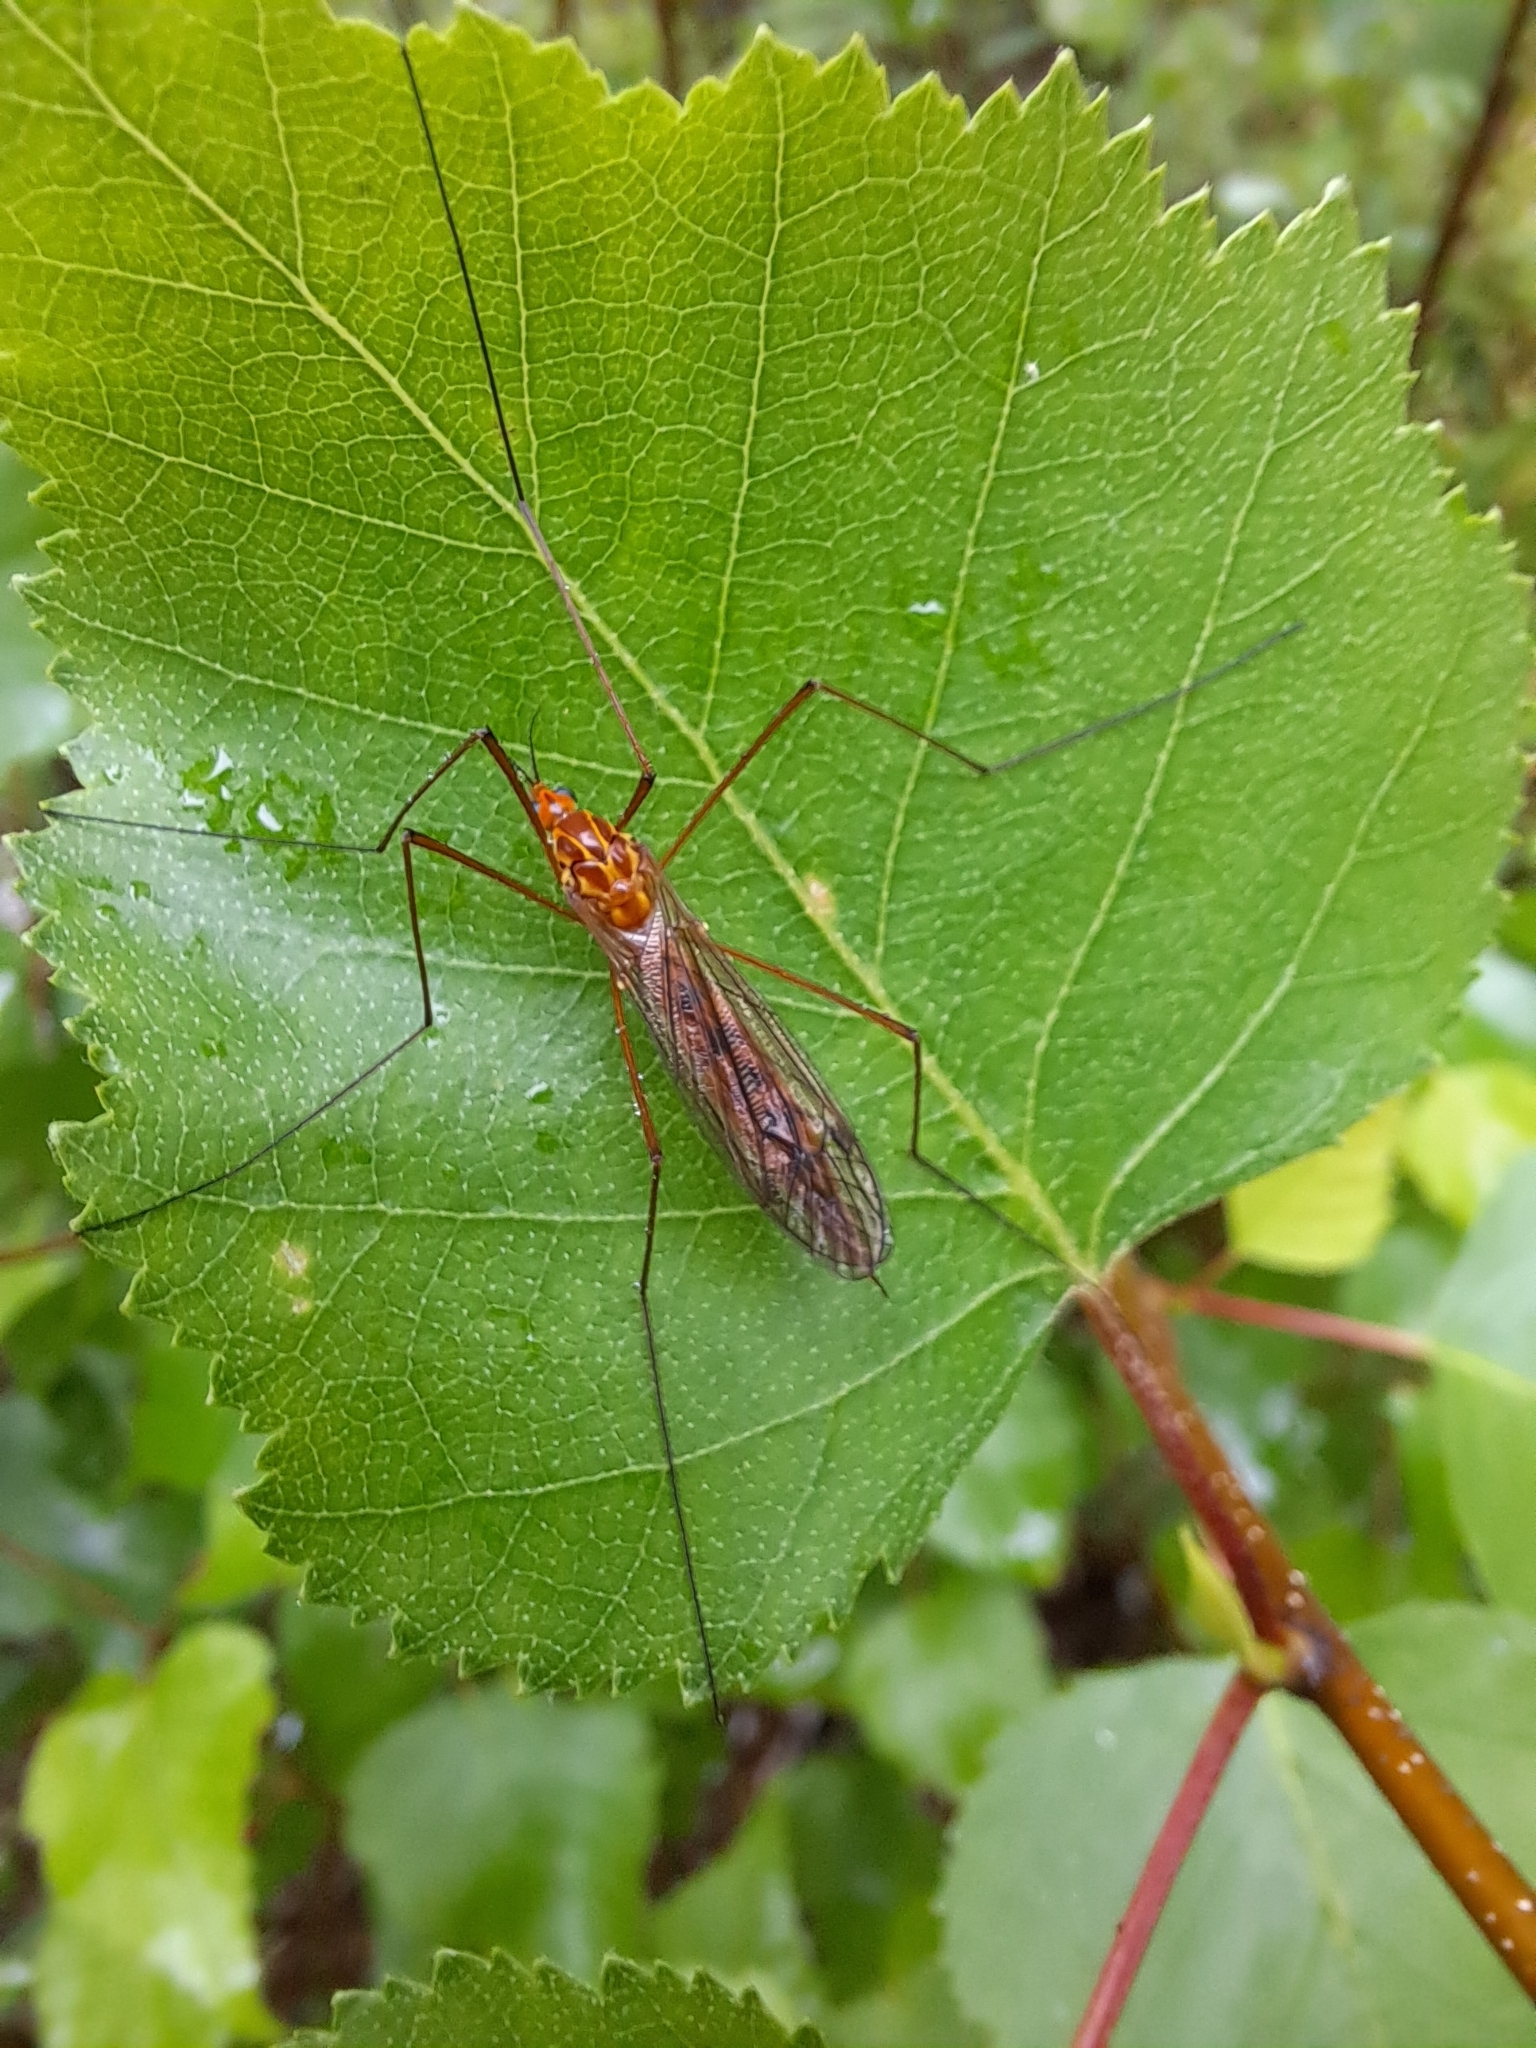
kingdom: Animalia
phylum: Arthropoda
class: Insecta
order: Diptera
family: Tipulidae
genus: Nephrotoma
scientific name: Nephrotoma ferruginea
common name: Ferruginous tiger crane fly
